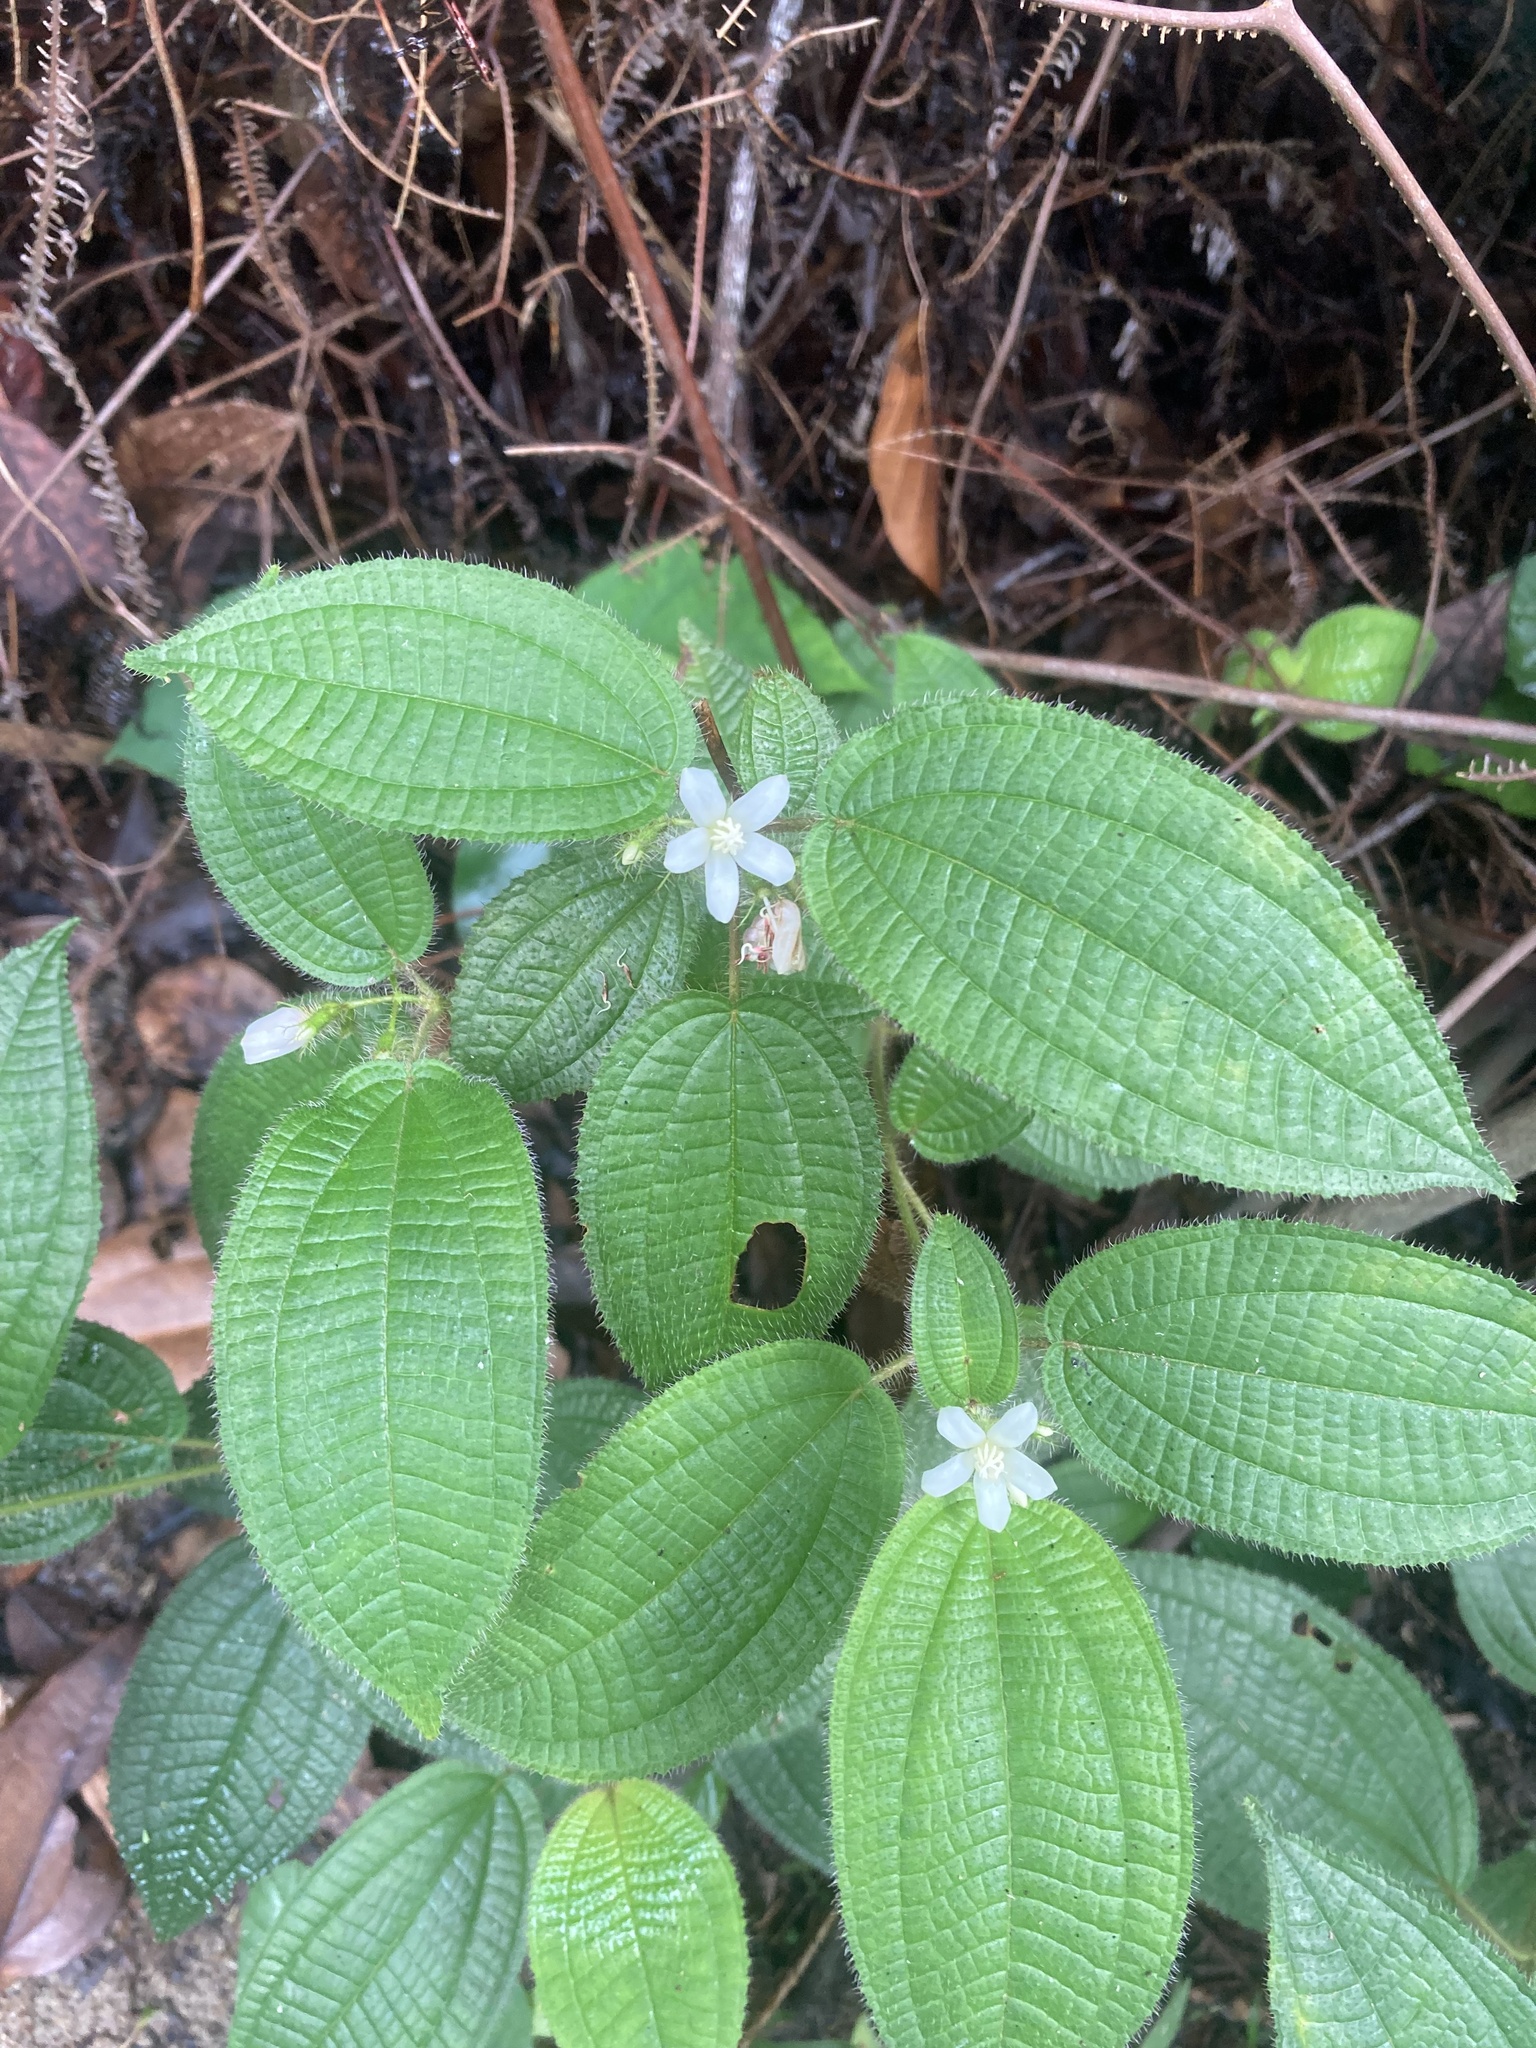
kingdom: Plantae
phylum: Tracheophyta
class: Magnoliopsida
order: Myrtales
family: Melastomataceae
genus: Miconia
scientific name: Miconia crenata
